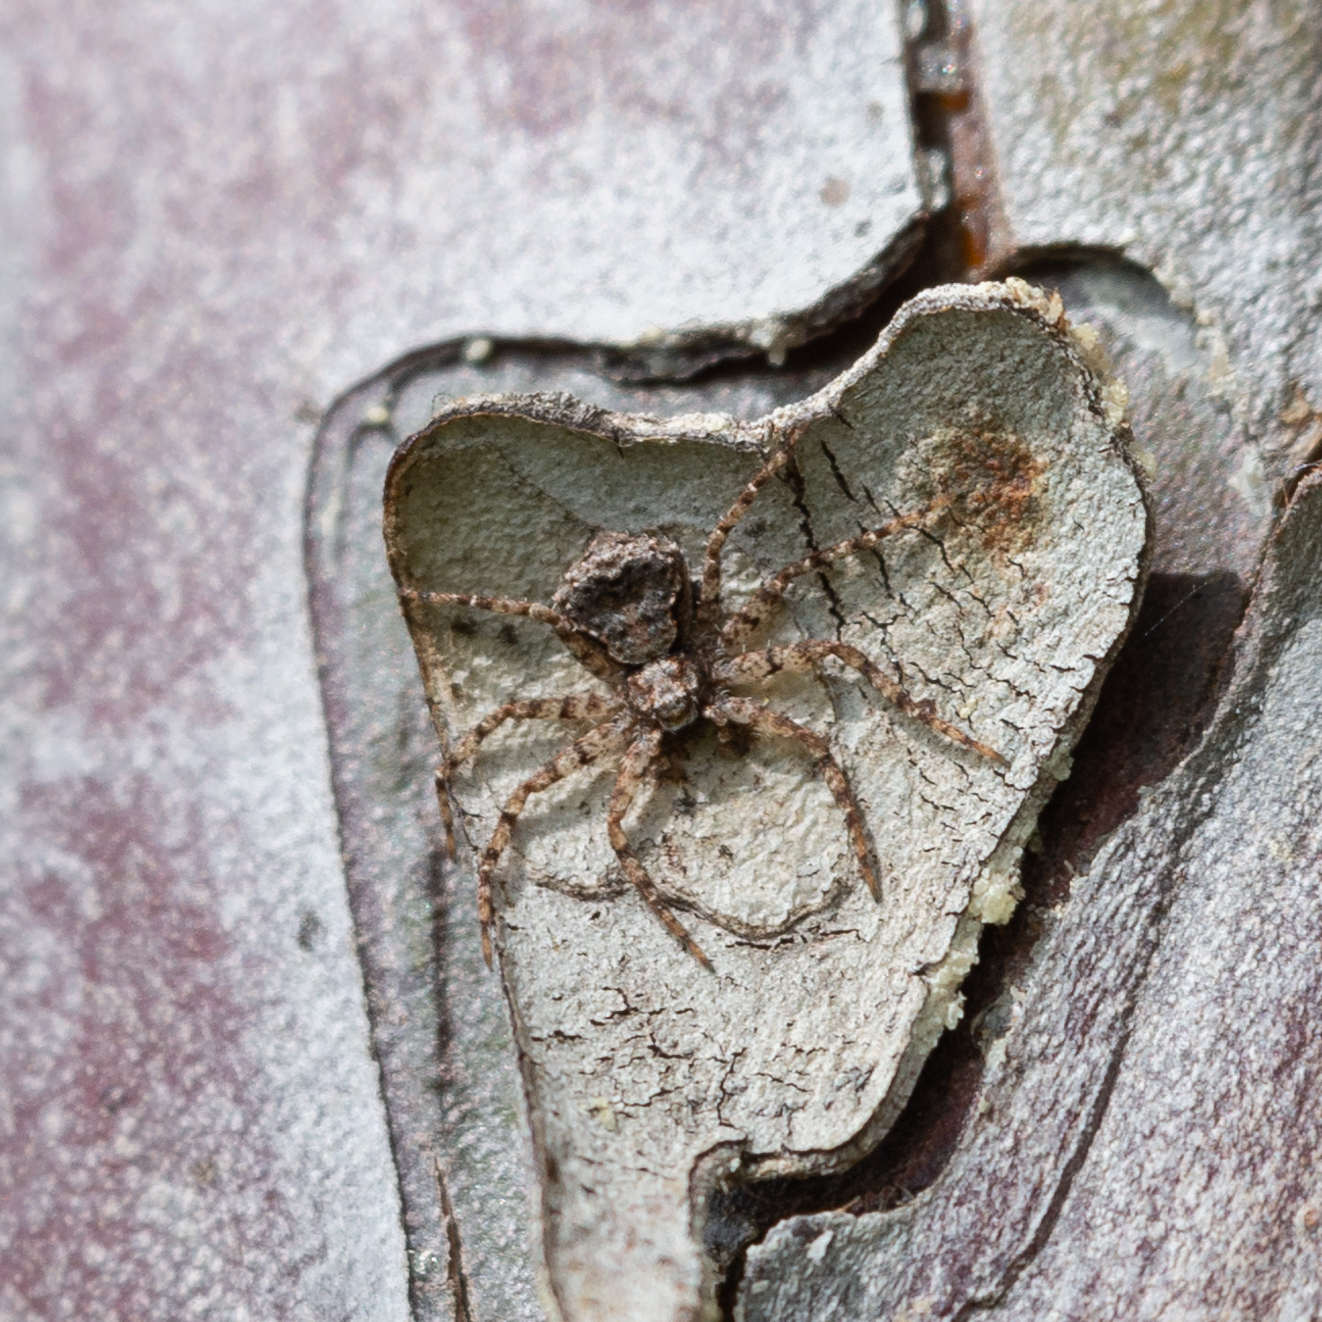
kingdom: Animalia
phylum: Arthropoda
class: Arachnida
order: Araneae
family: Philodromidae
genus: Philodromus
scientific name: Philodromus pinetorum
